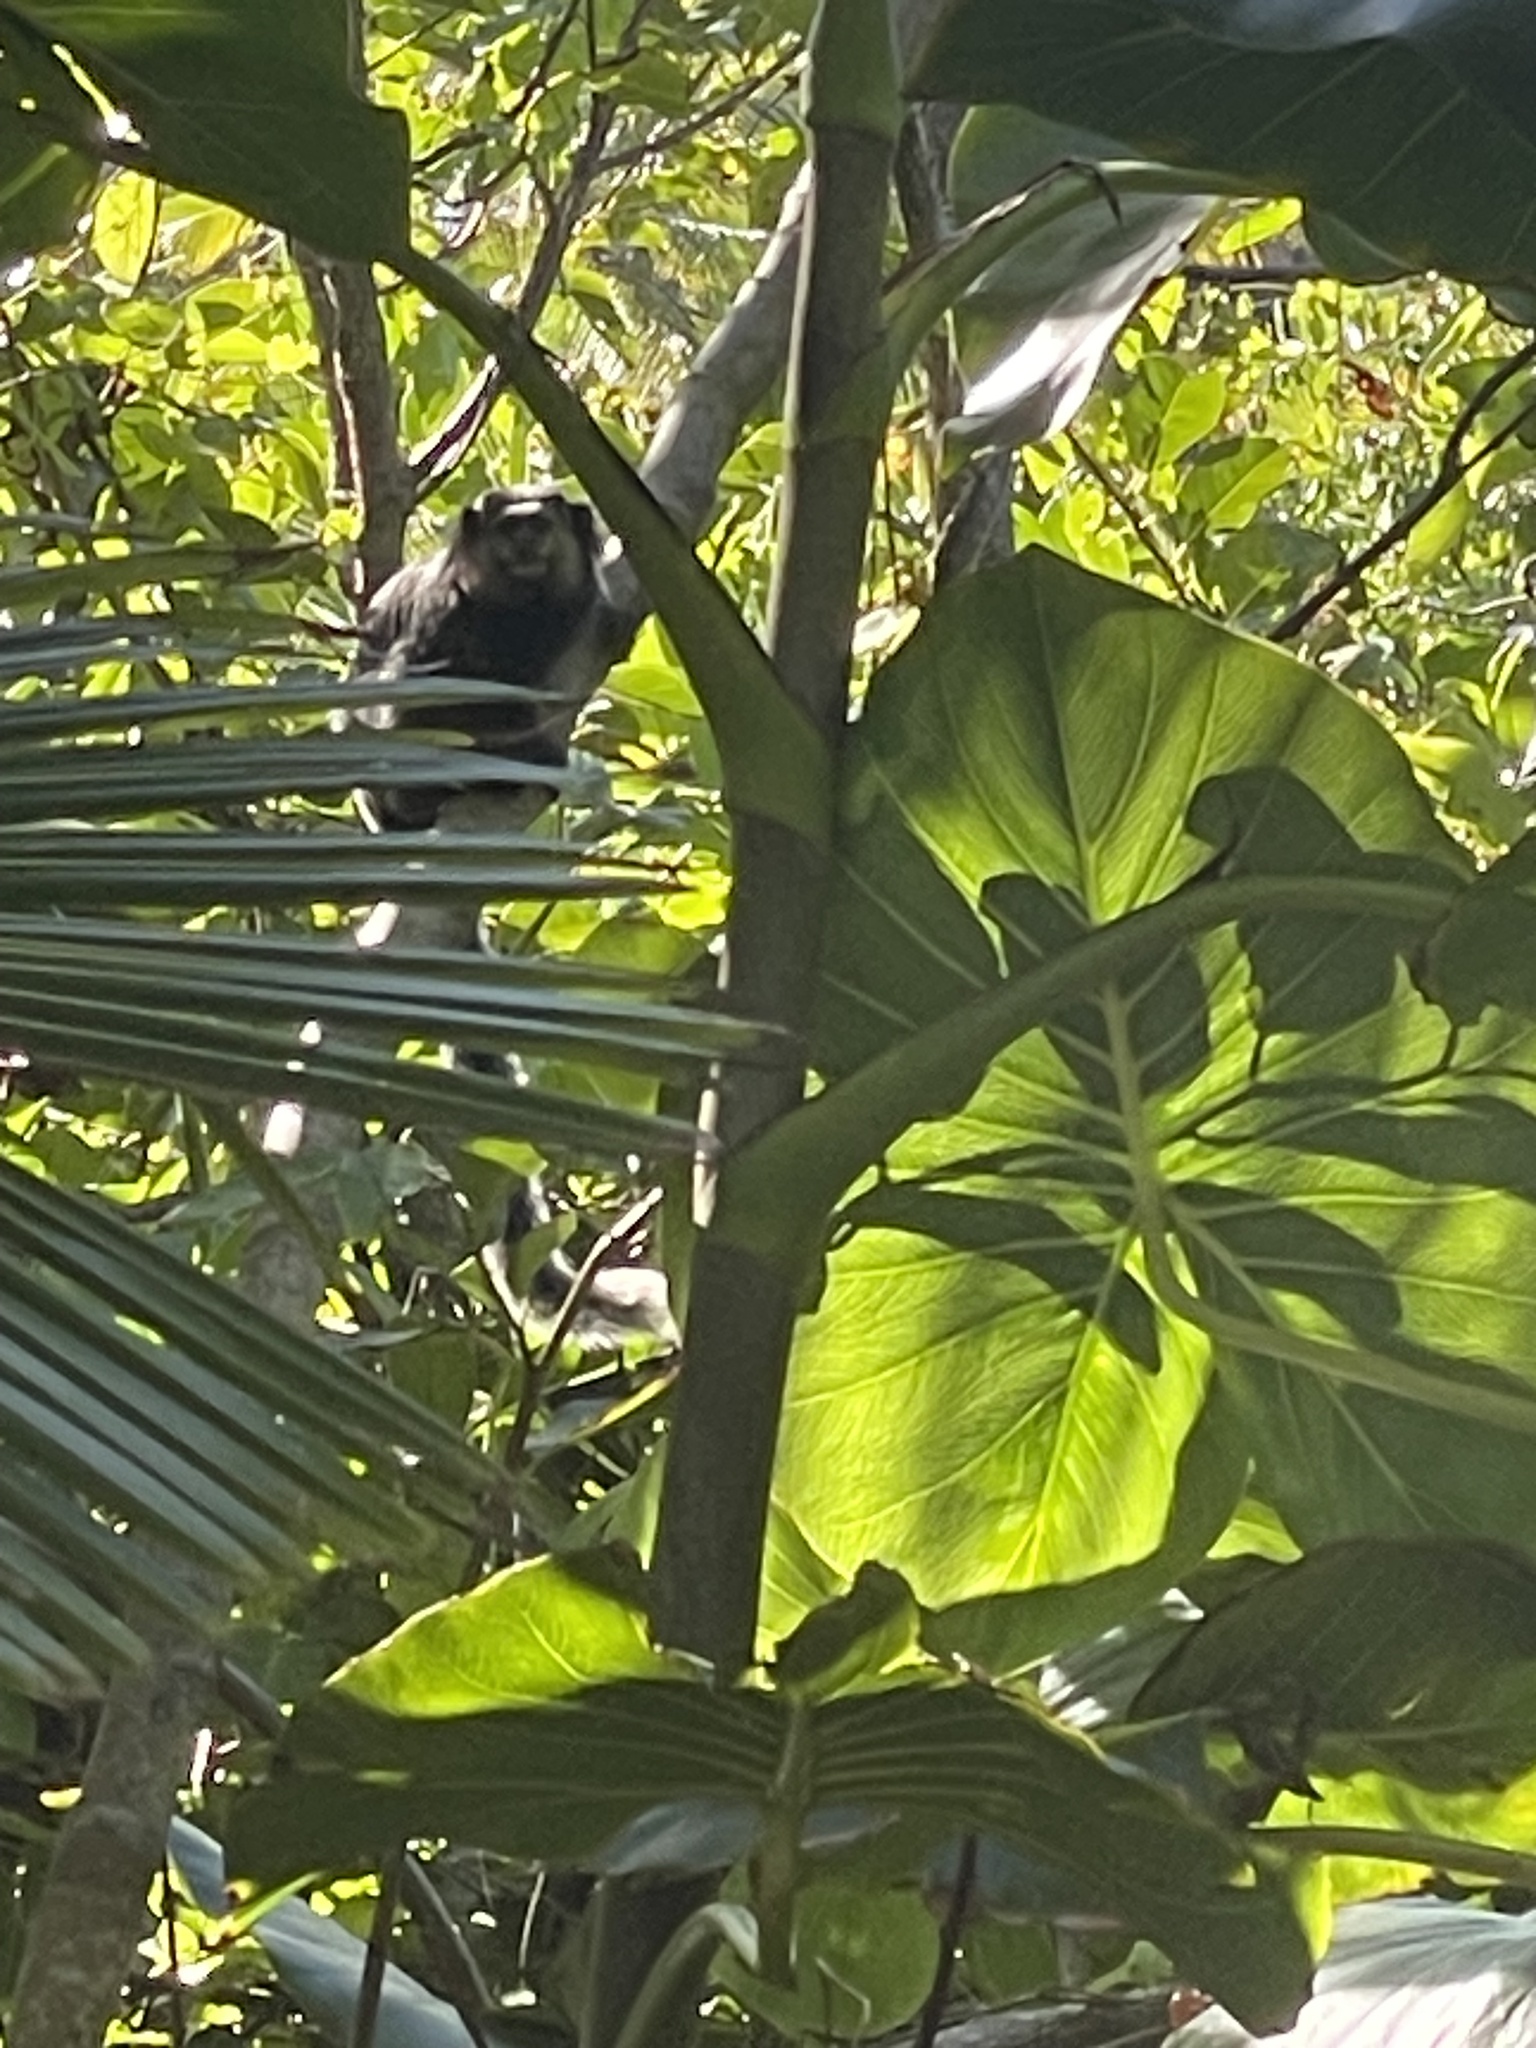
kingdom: Animalia
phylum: Chordata
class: Mammalia
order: Primates
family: Callitrichidae
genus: Callithrix
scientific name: Callithrix kuhlii
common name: Wied's marmoset
